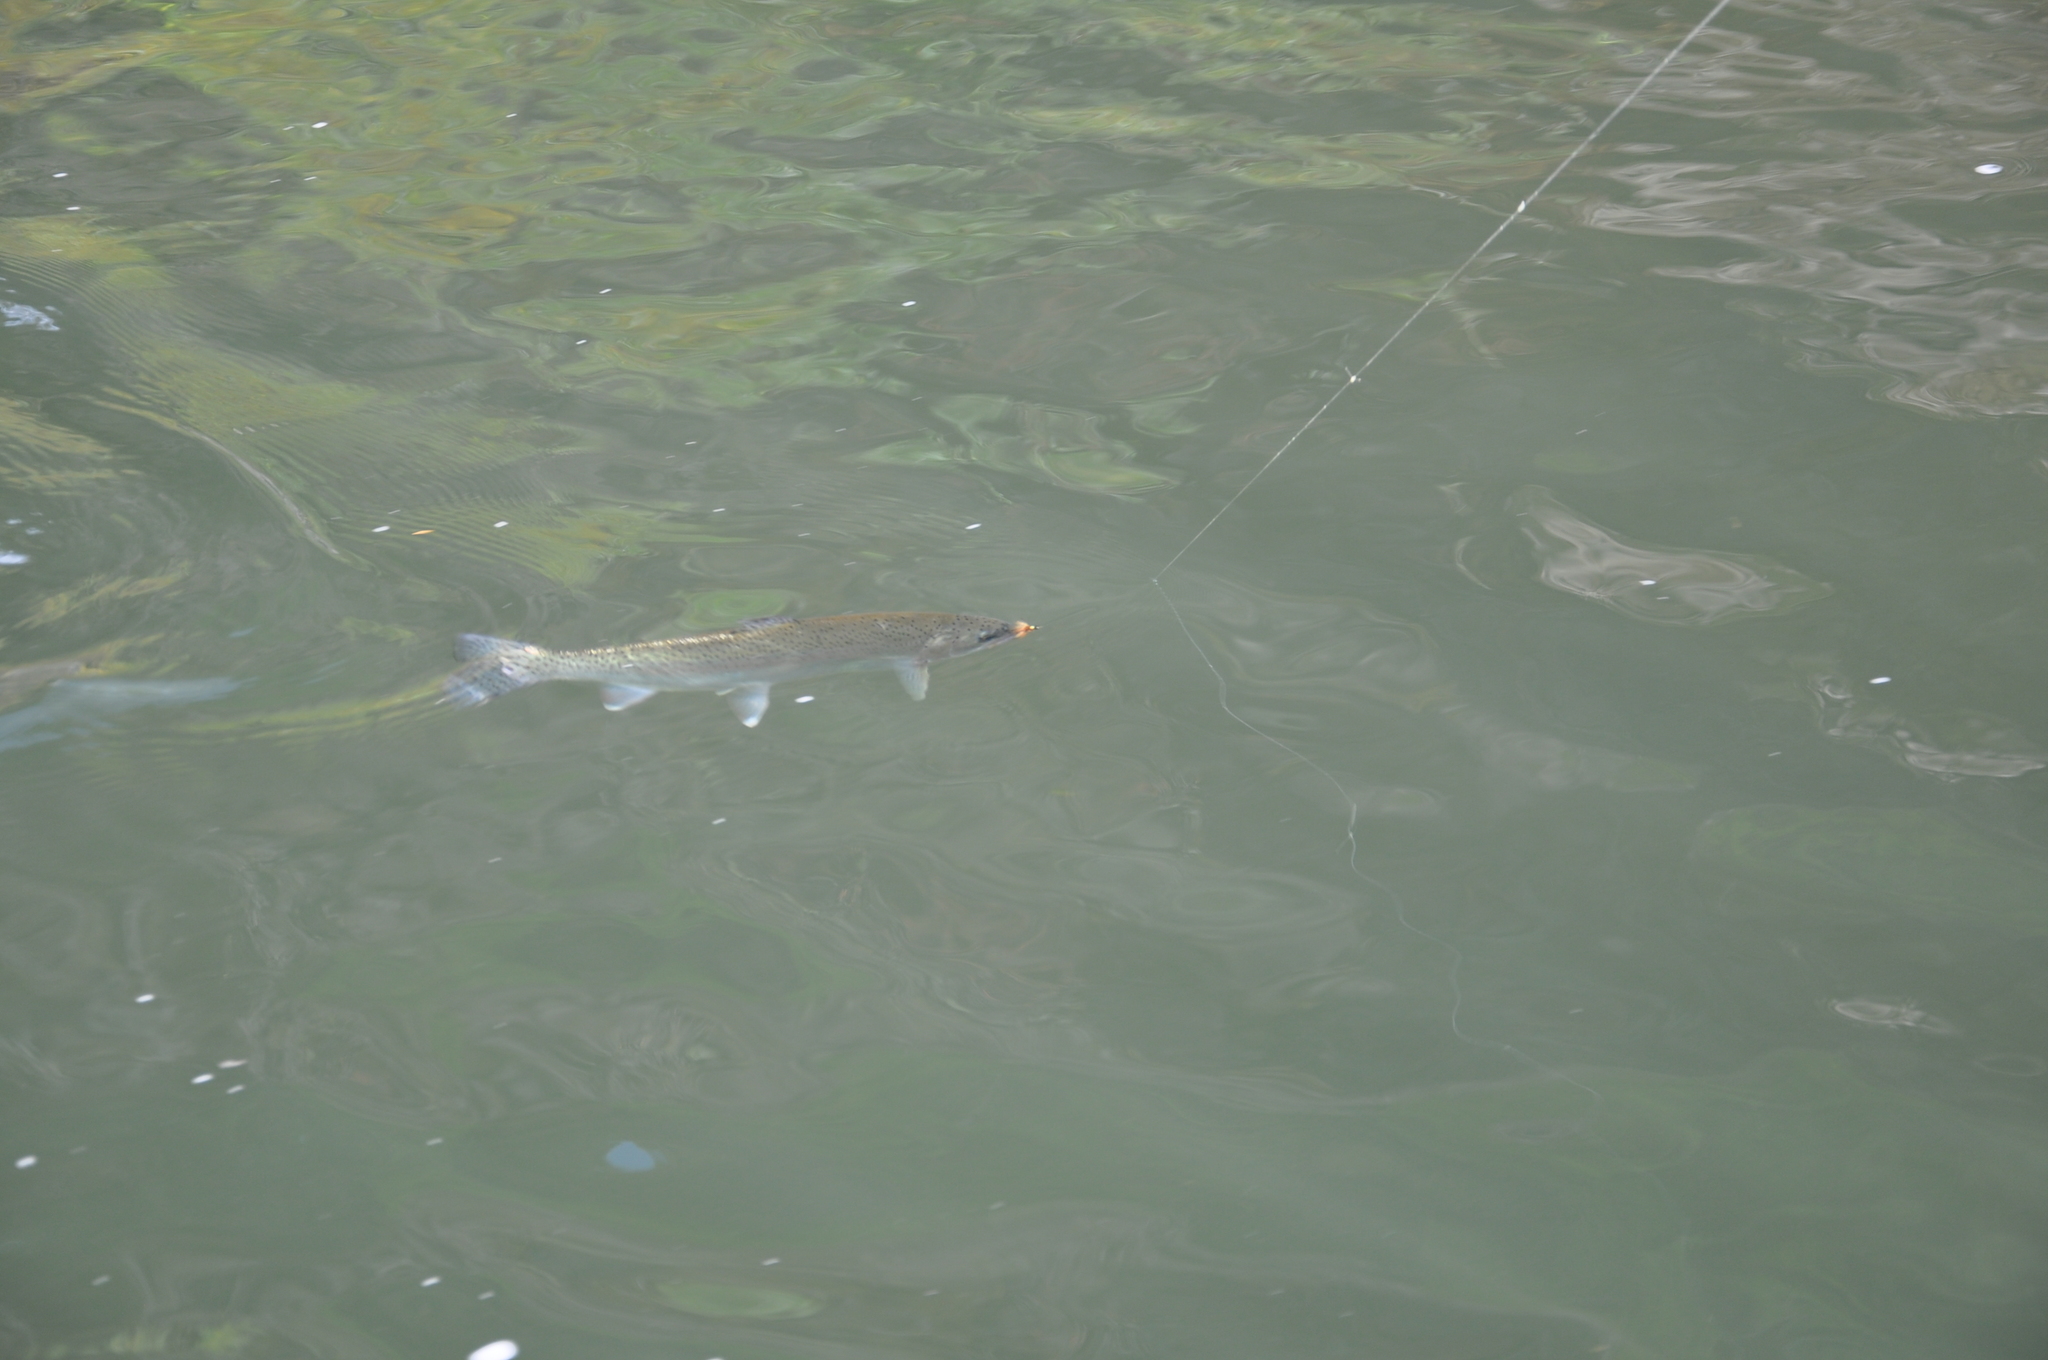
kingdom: Animalia
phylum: Chordata
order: Salmoniformes
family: Salmonidae
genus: Oncorhynchus
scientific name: Oncorhynchus mykiss
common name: Rainbow trout
